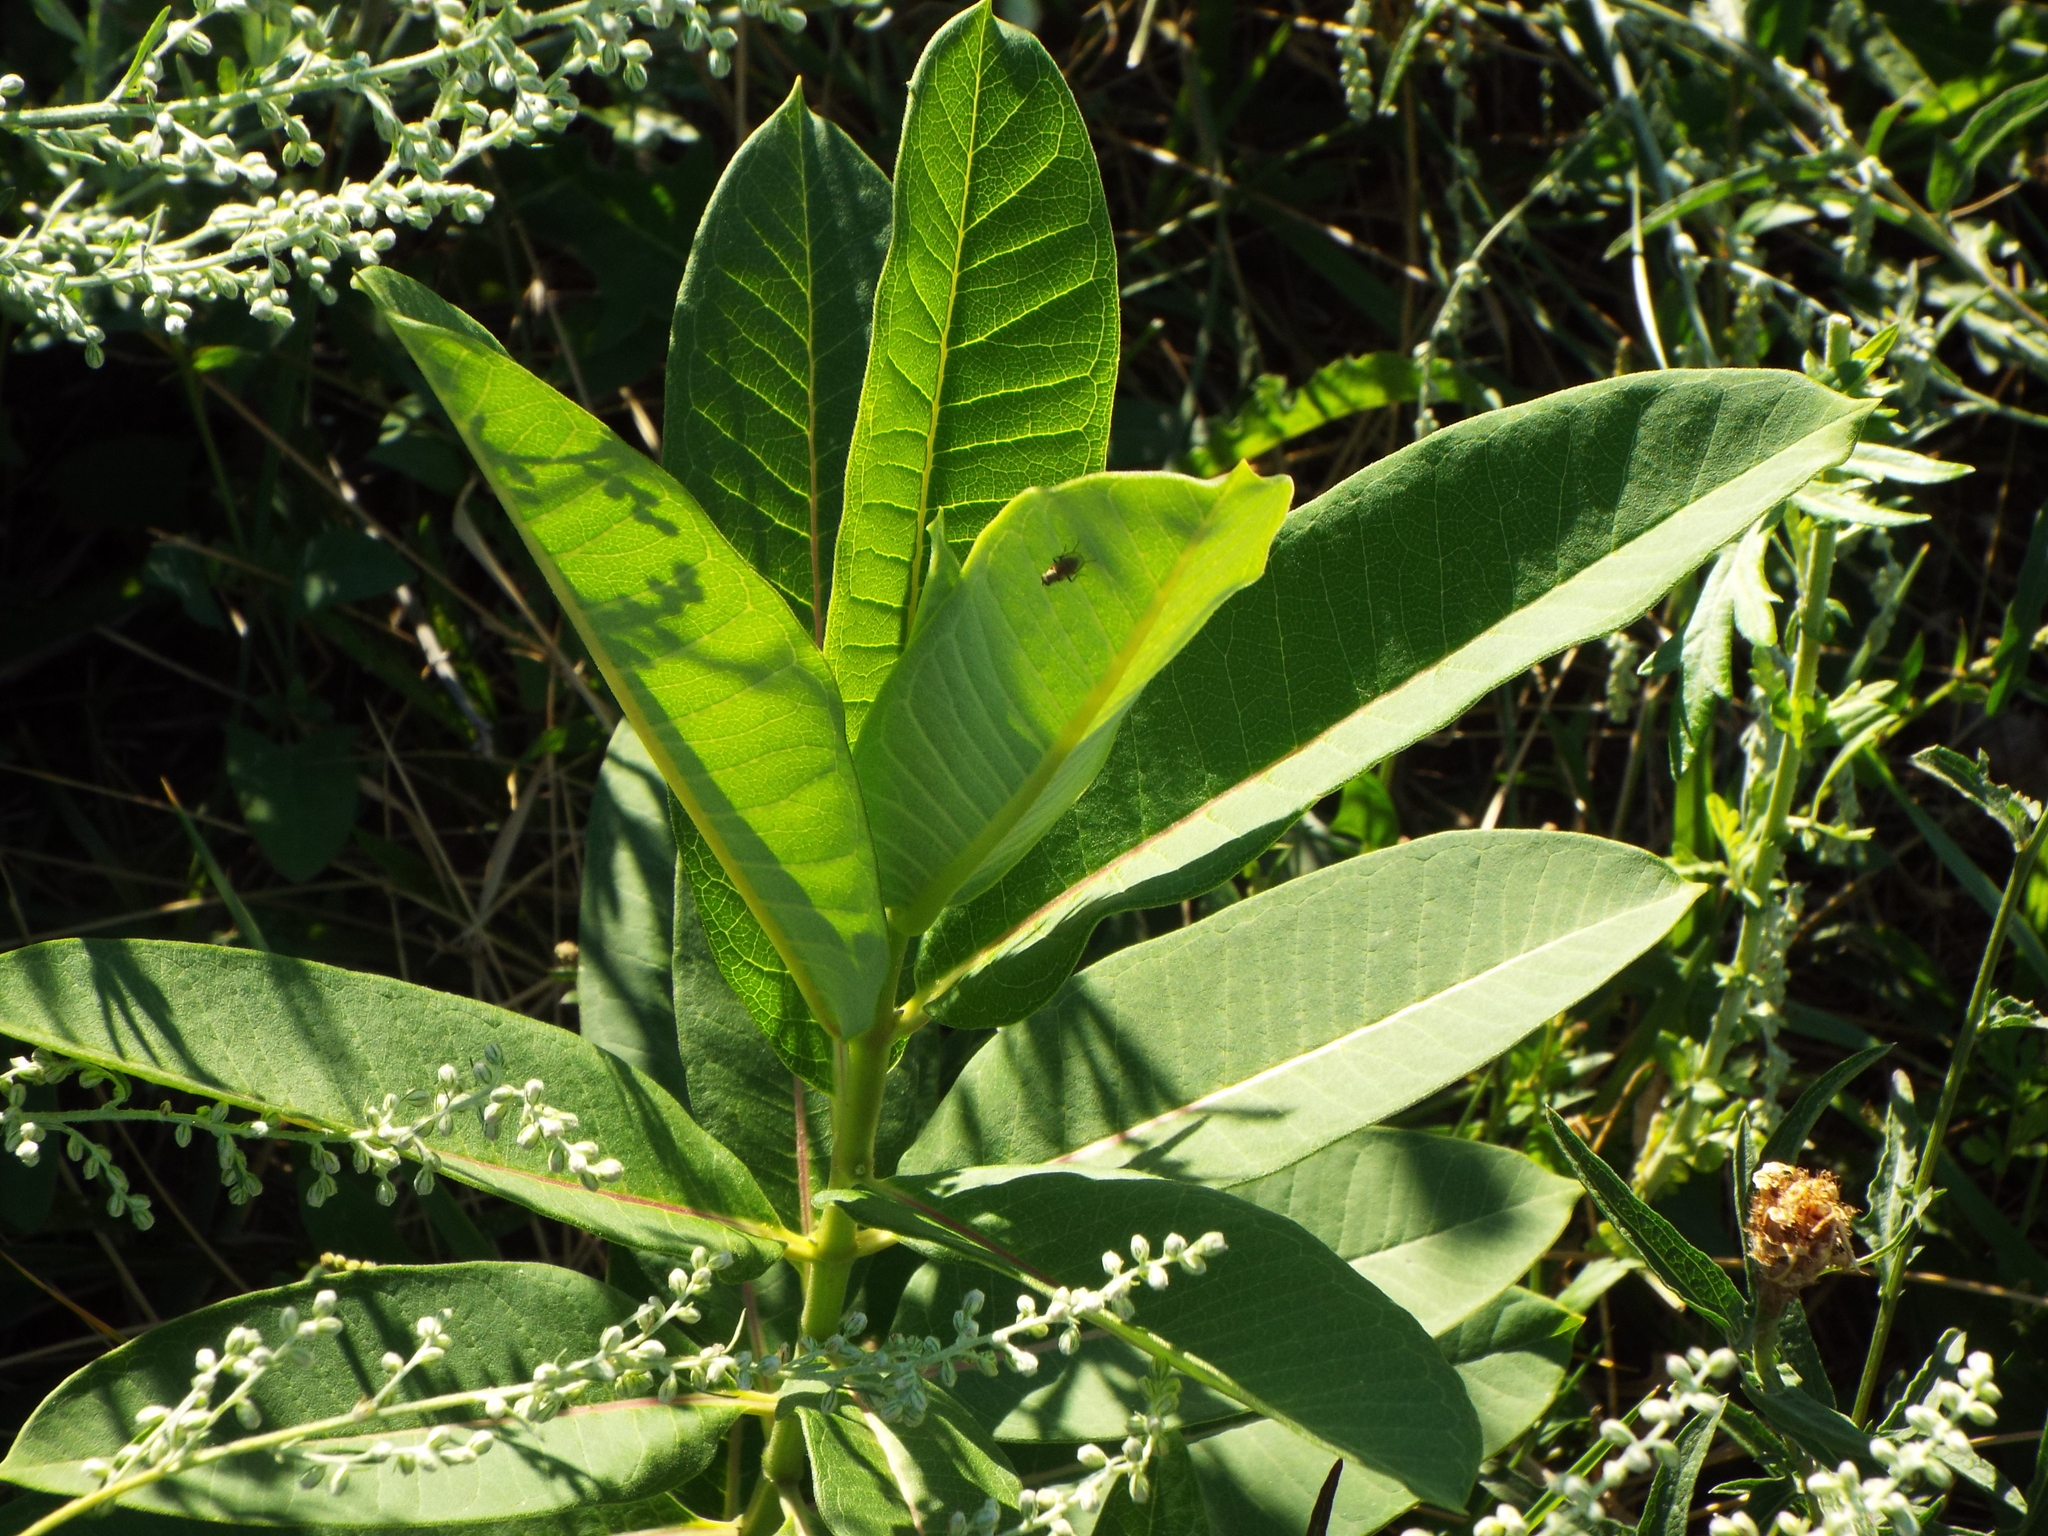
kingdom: Plantae
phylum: Tracheophyta
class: Magnoliopsida
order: Gentianales
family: Apocynaceae
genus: Asclepias
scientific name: Asclepias syriaca
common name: Common milkweed
